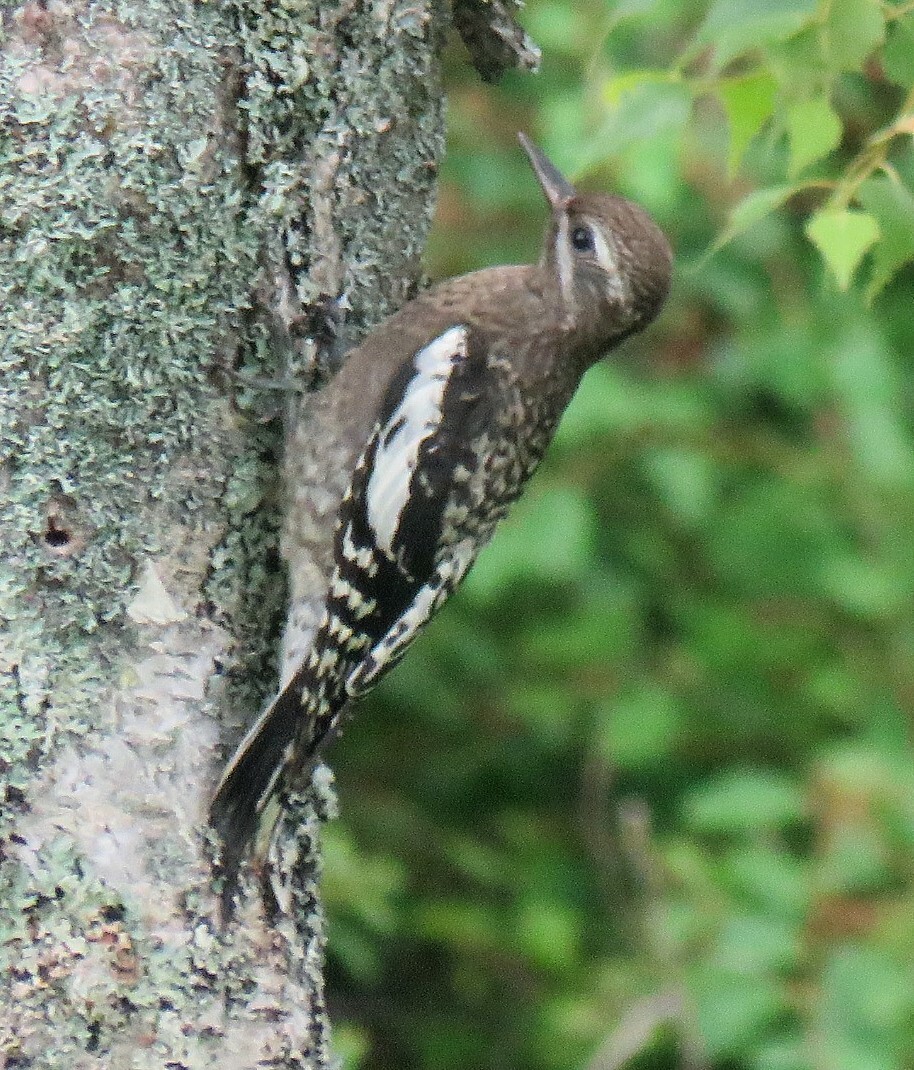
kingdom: Animalia
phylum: Chordata
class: Aves
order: Piciformes
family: Picidae
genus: Sphyrapicus
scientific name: Sphyrapicus varius
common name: Yellow-bellied sapsucker
